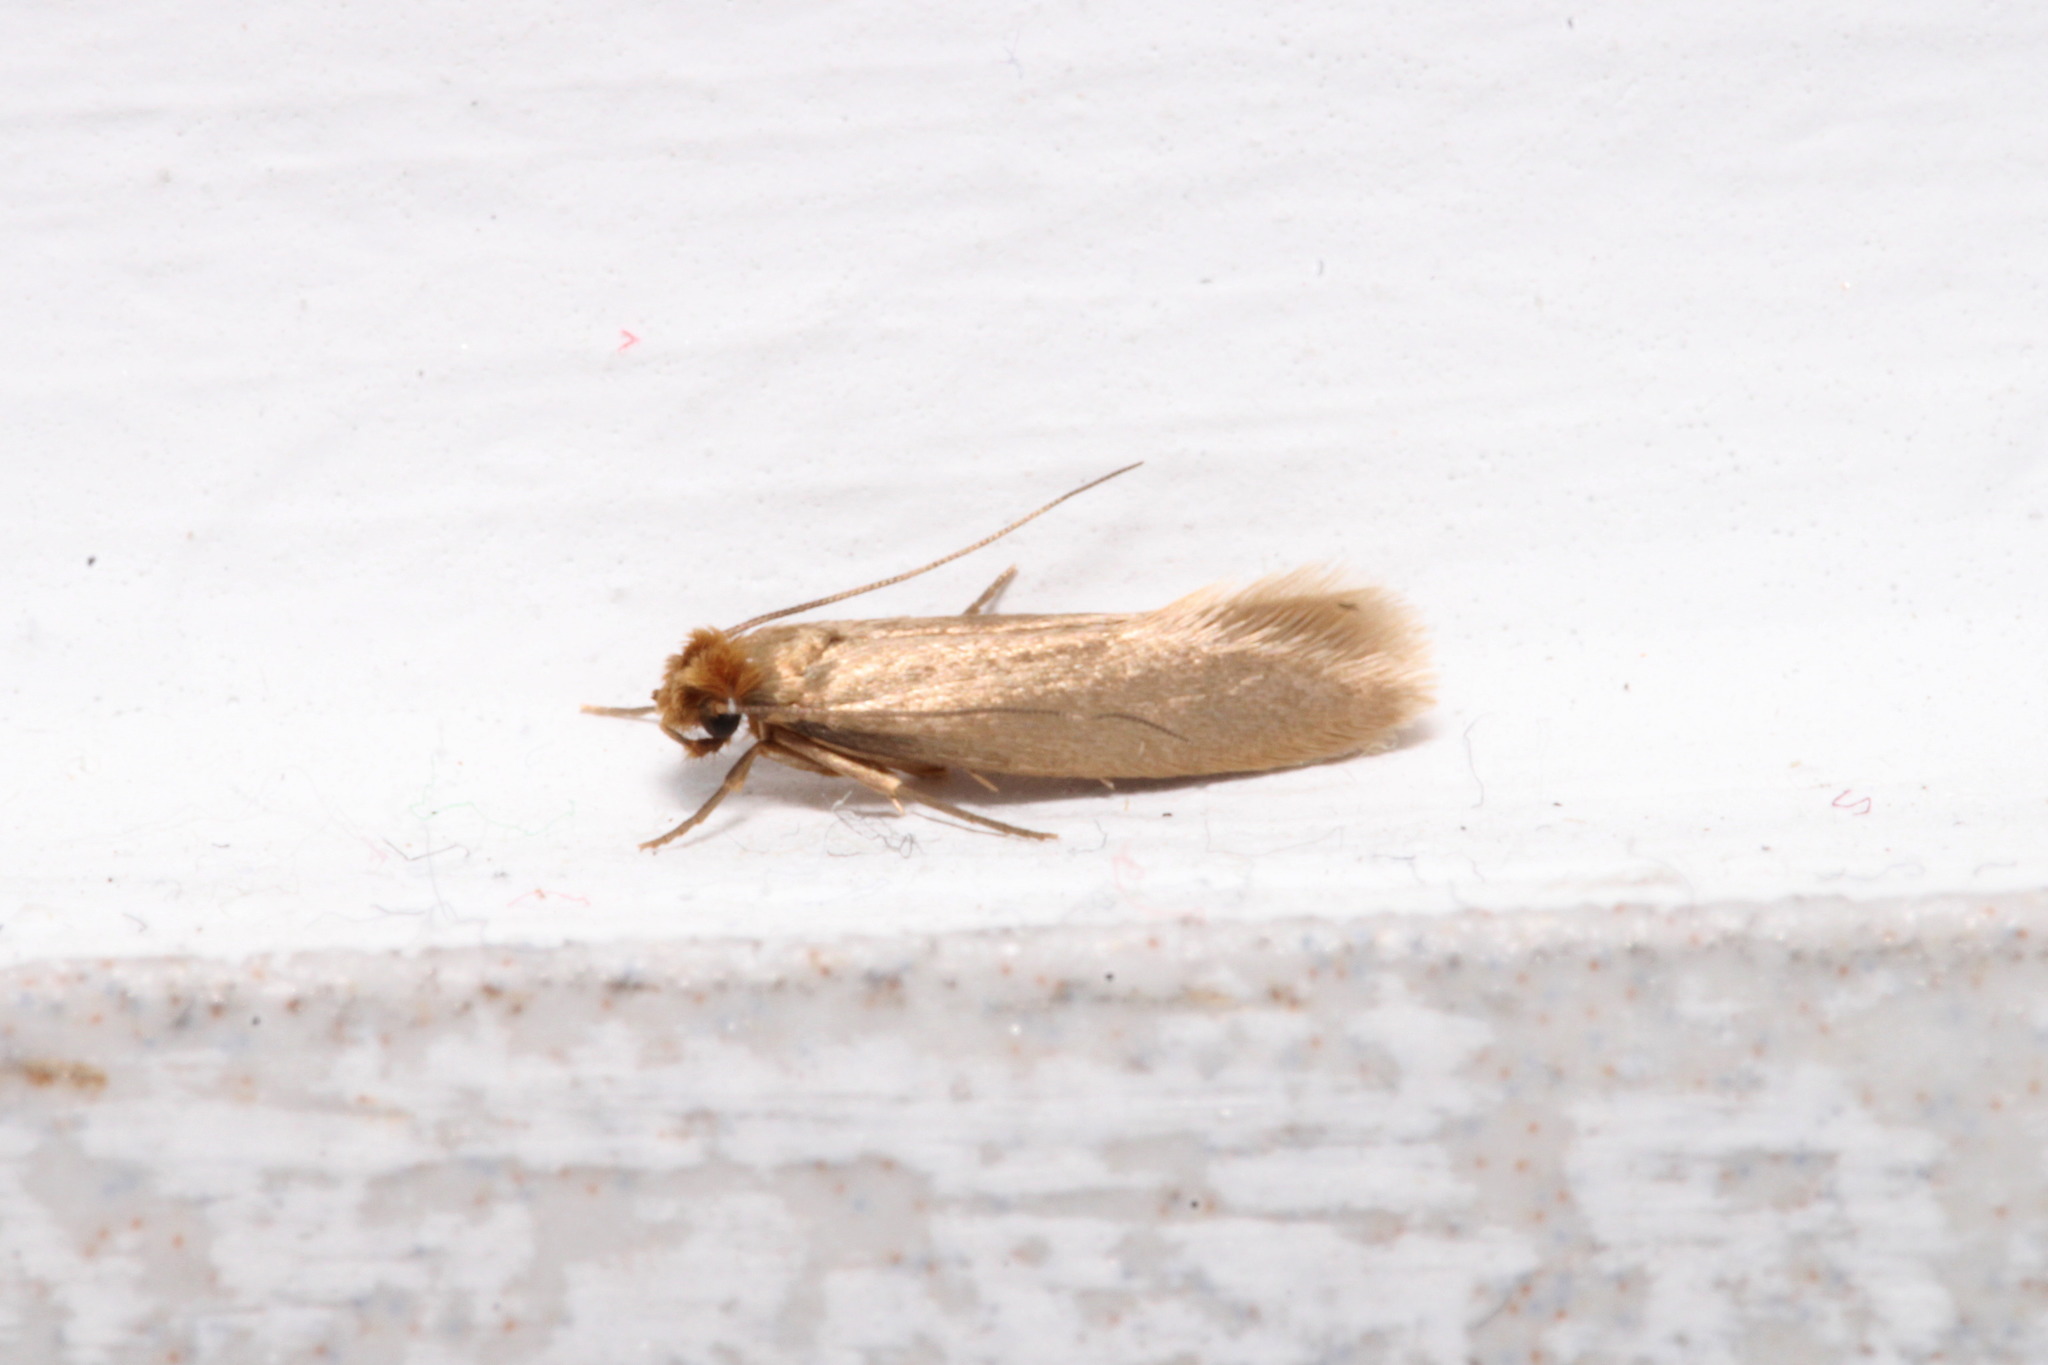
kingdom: Animalia
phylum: Arthropoda
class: Insecta
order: Lepidoptera
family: Tineidae
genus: Tineola
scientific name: Tineola bisselliella
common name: Webbing clothes moth
